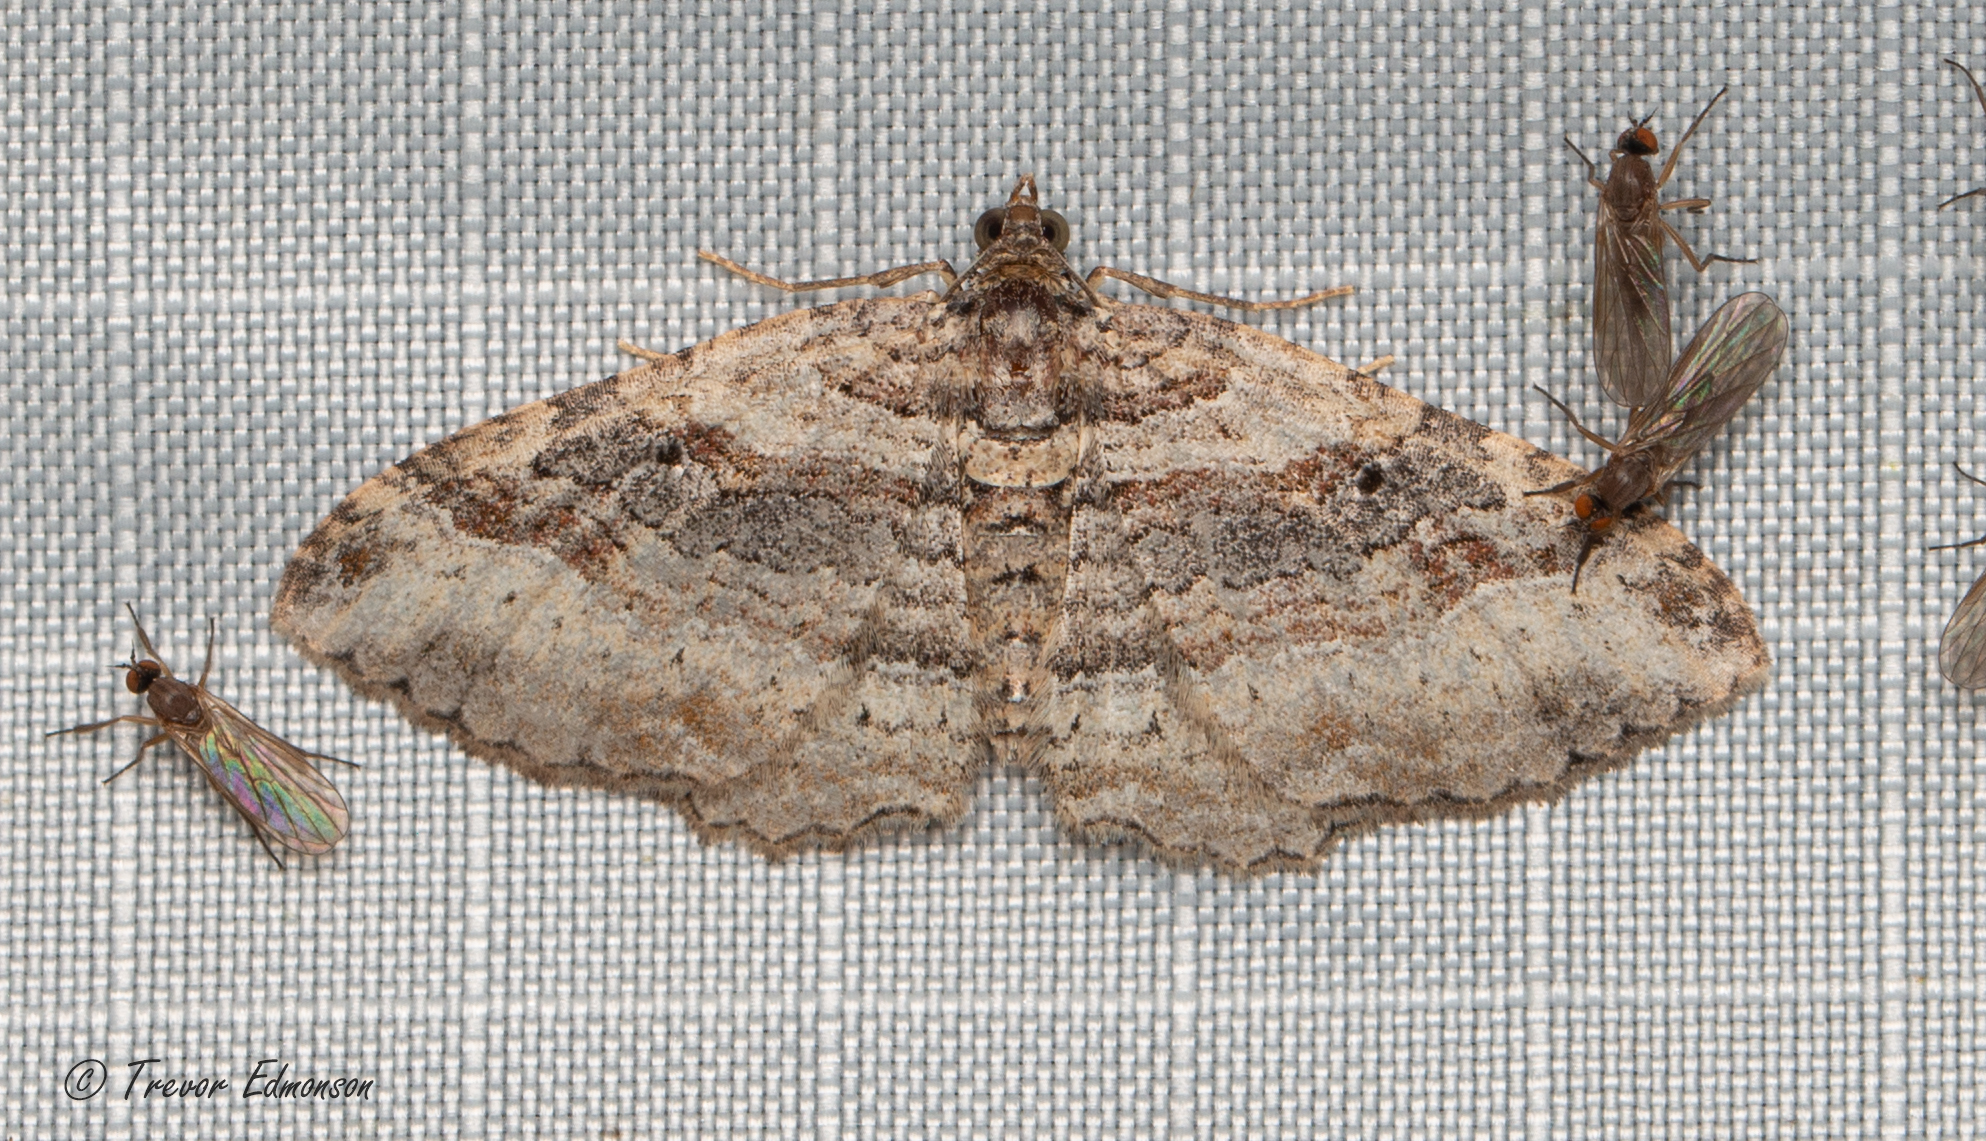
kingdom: Animalia
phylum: Arthropoda
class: Insecta
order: Lepidoptera
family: Geometridae
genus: Costaconvexa
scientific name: Costaconvexa centrostrigaria
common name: Bent-line carpet
